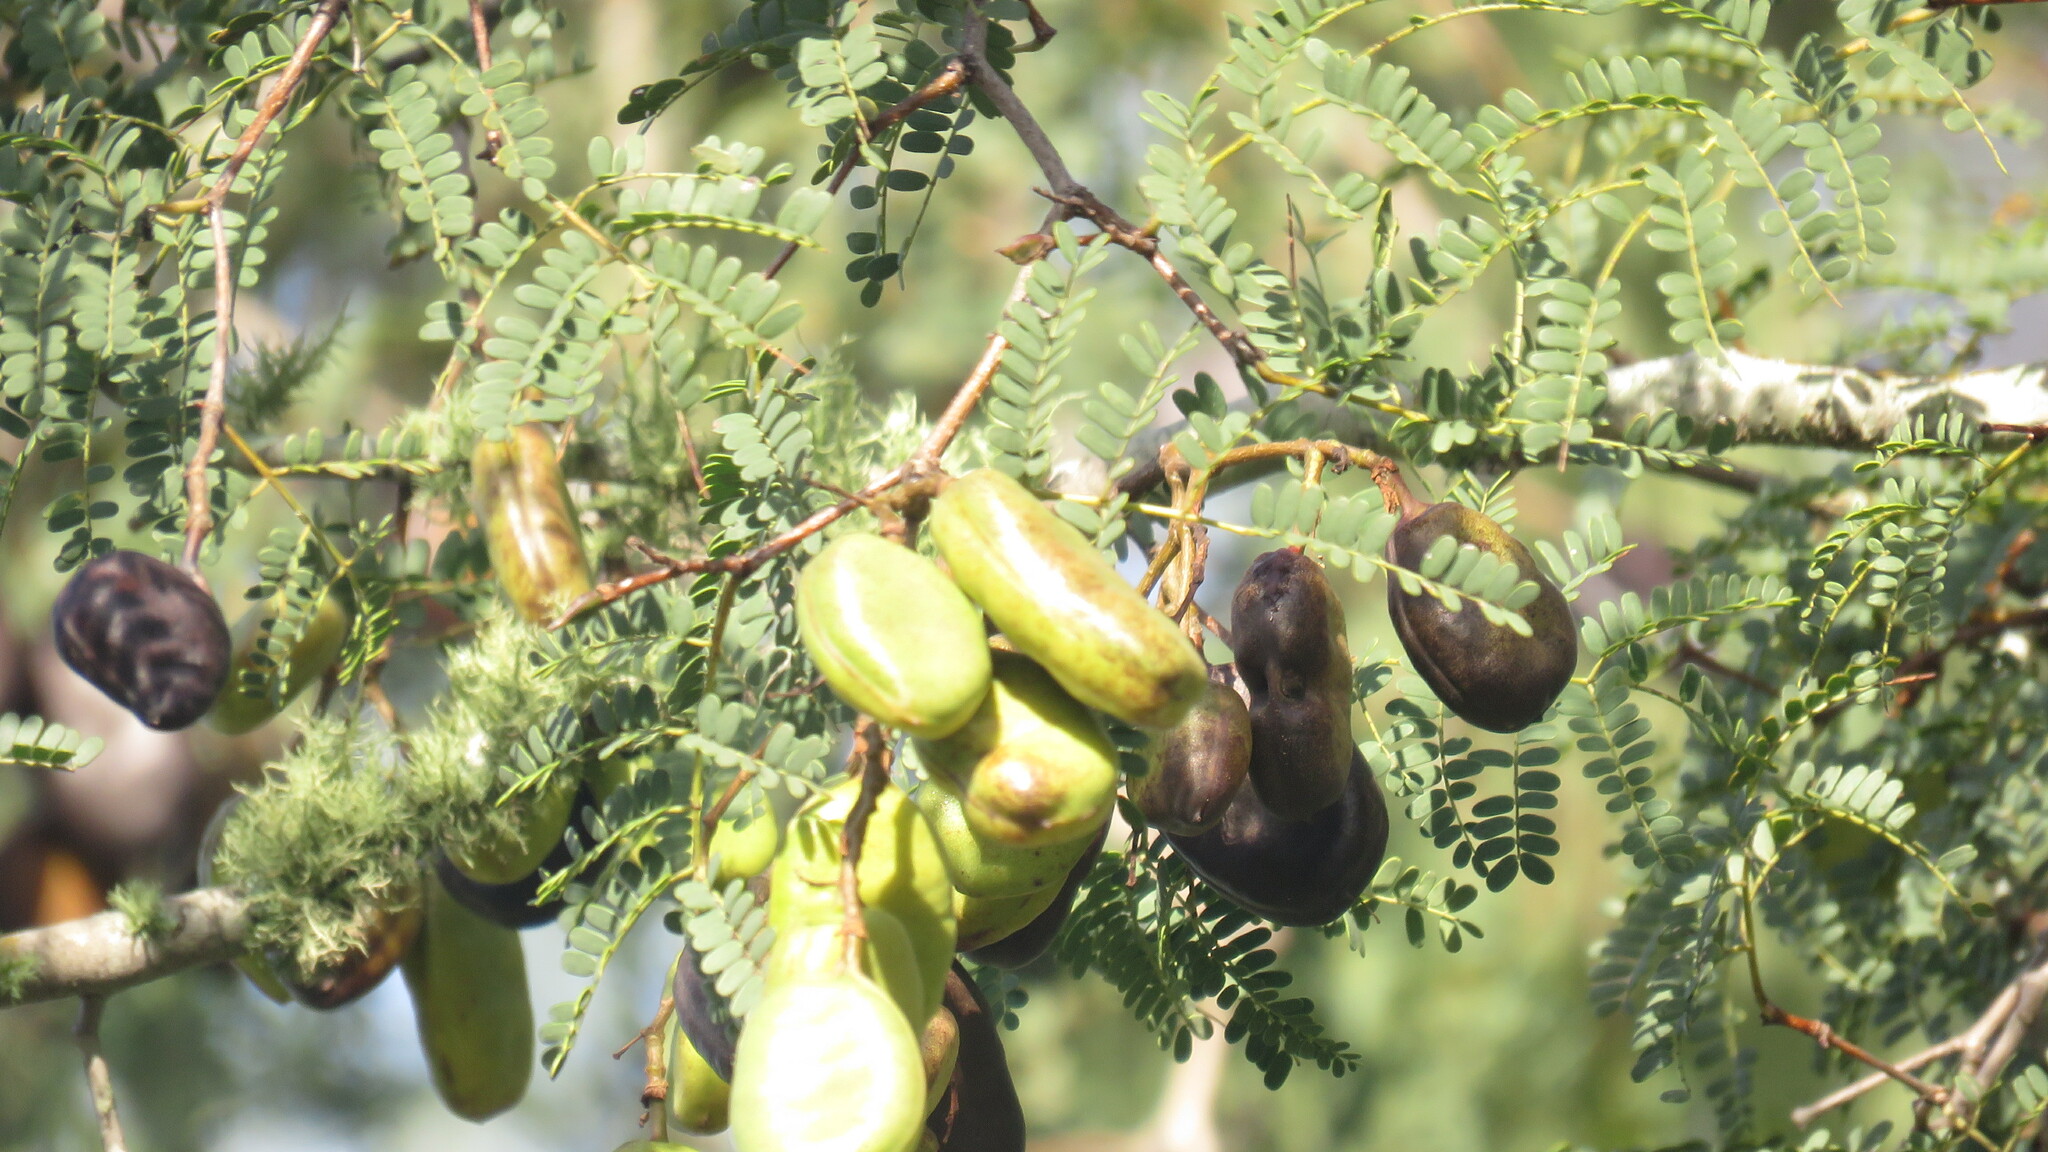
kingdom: Plantae
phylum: Tracheophyta
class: Magnoliopsida
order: Fabales
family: Fabaceae
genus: Libidibia
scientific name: Libidibia paraguariensis
